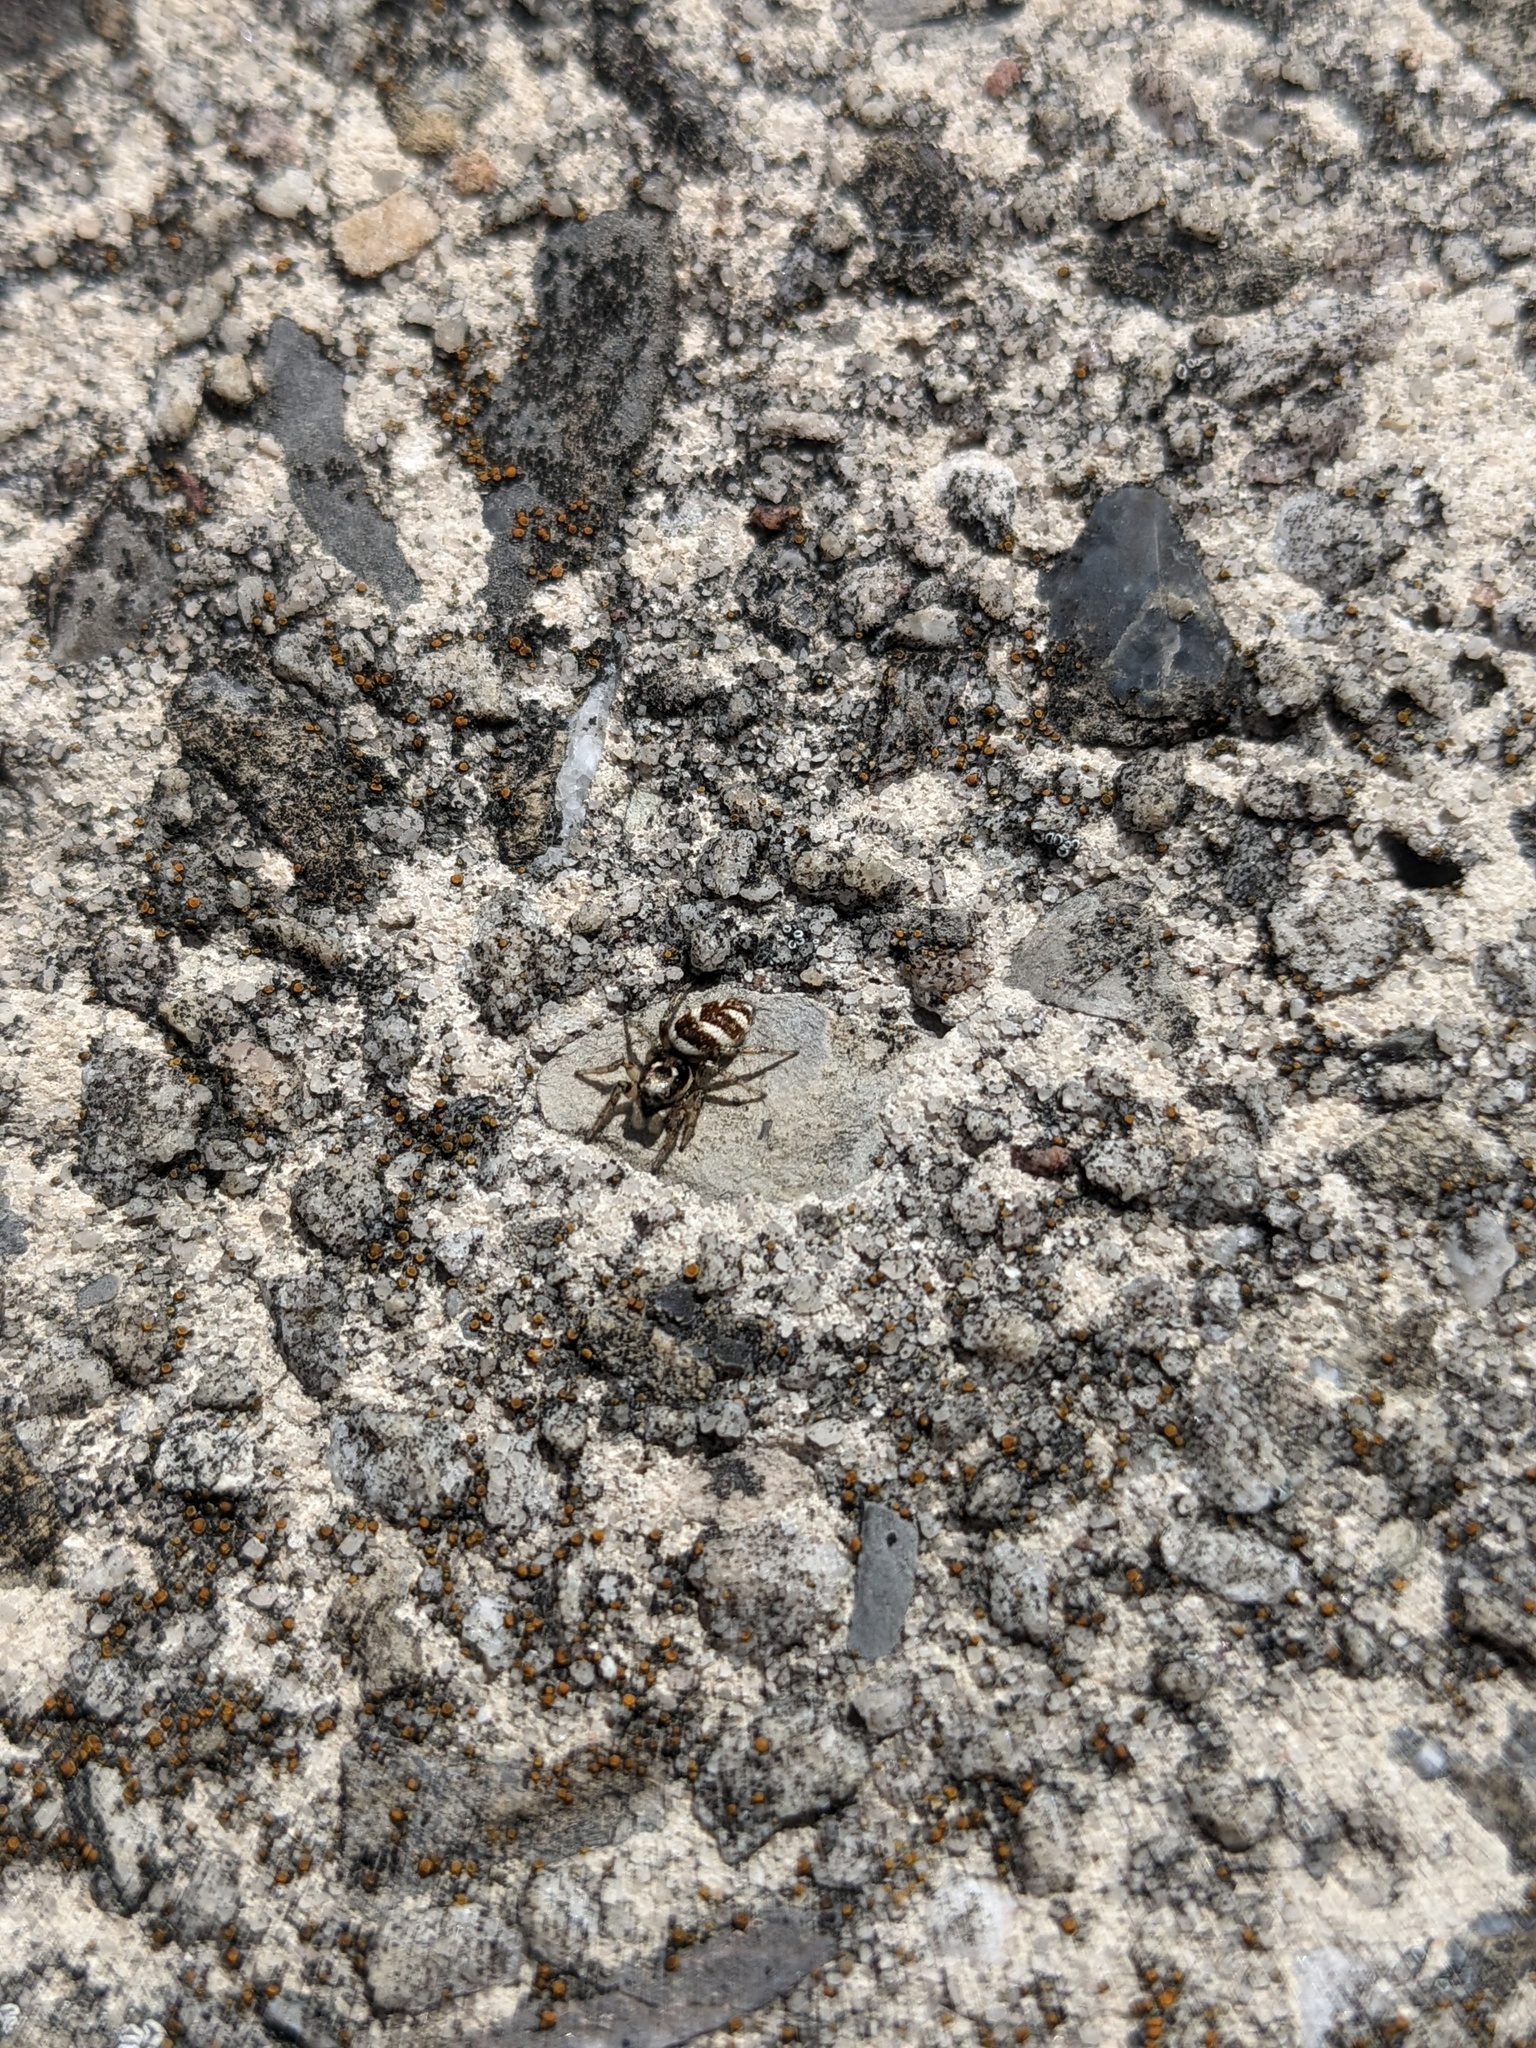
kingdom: Animalia
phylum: Arthropoda
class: Arachnida
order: Araneae
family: Salticidae
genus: Salticus
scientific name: Salticus scenicus
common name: Zebra jumper
